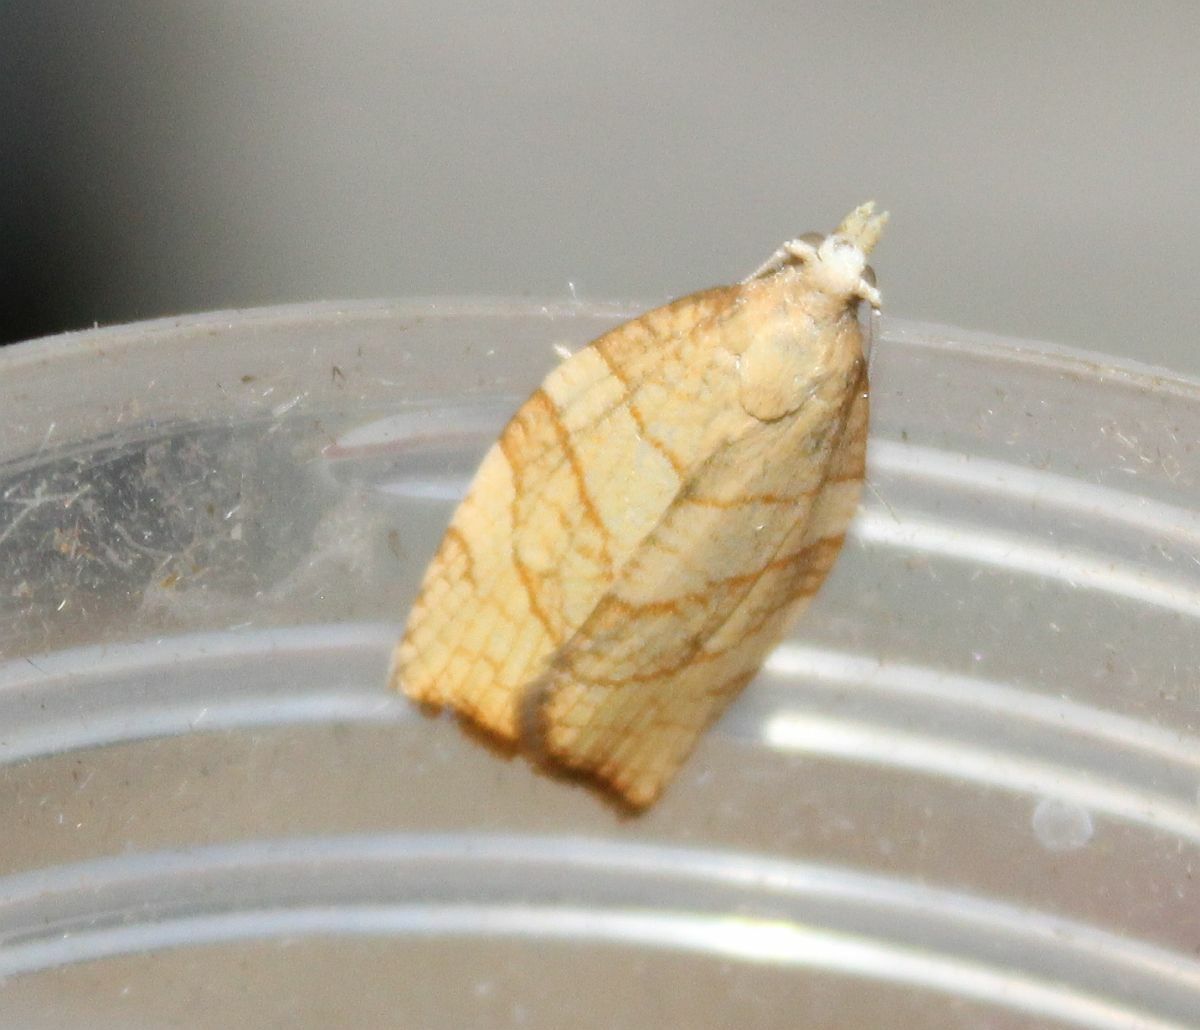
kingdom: Animalia
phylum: Arthropoda
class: Insecta
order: Lepidoptera
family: Tortricidae
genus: Pandemis
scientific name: Pandemis corylana
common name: Chequered fruit-tree tortrix
